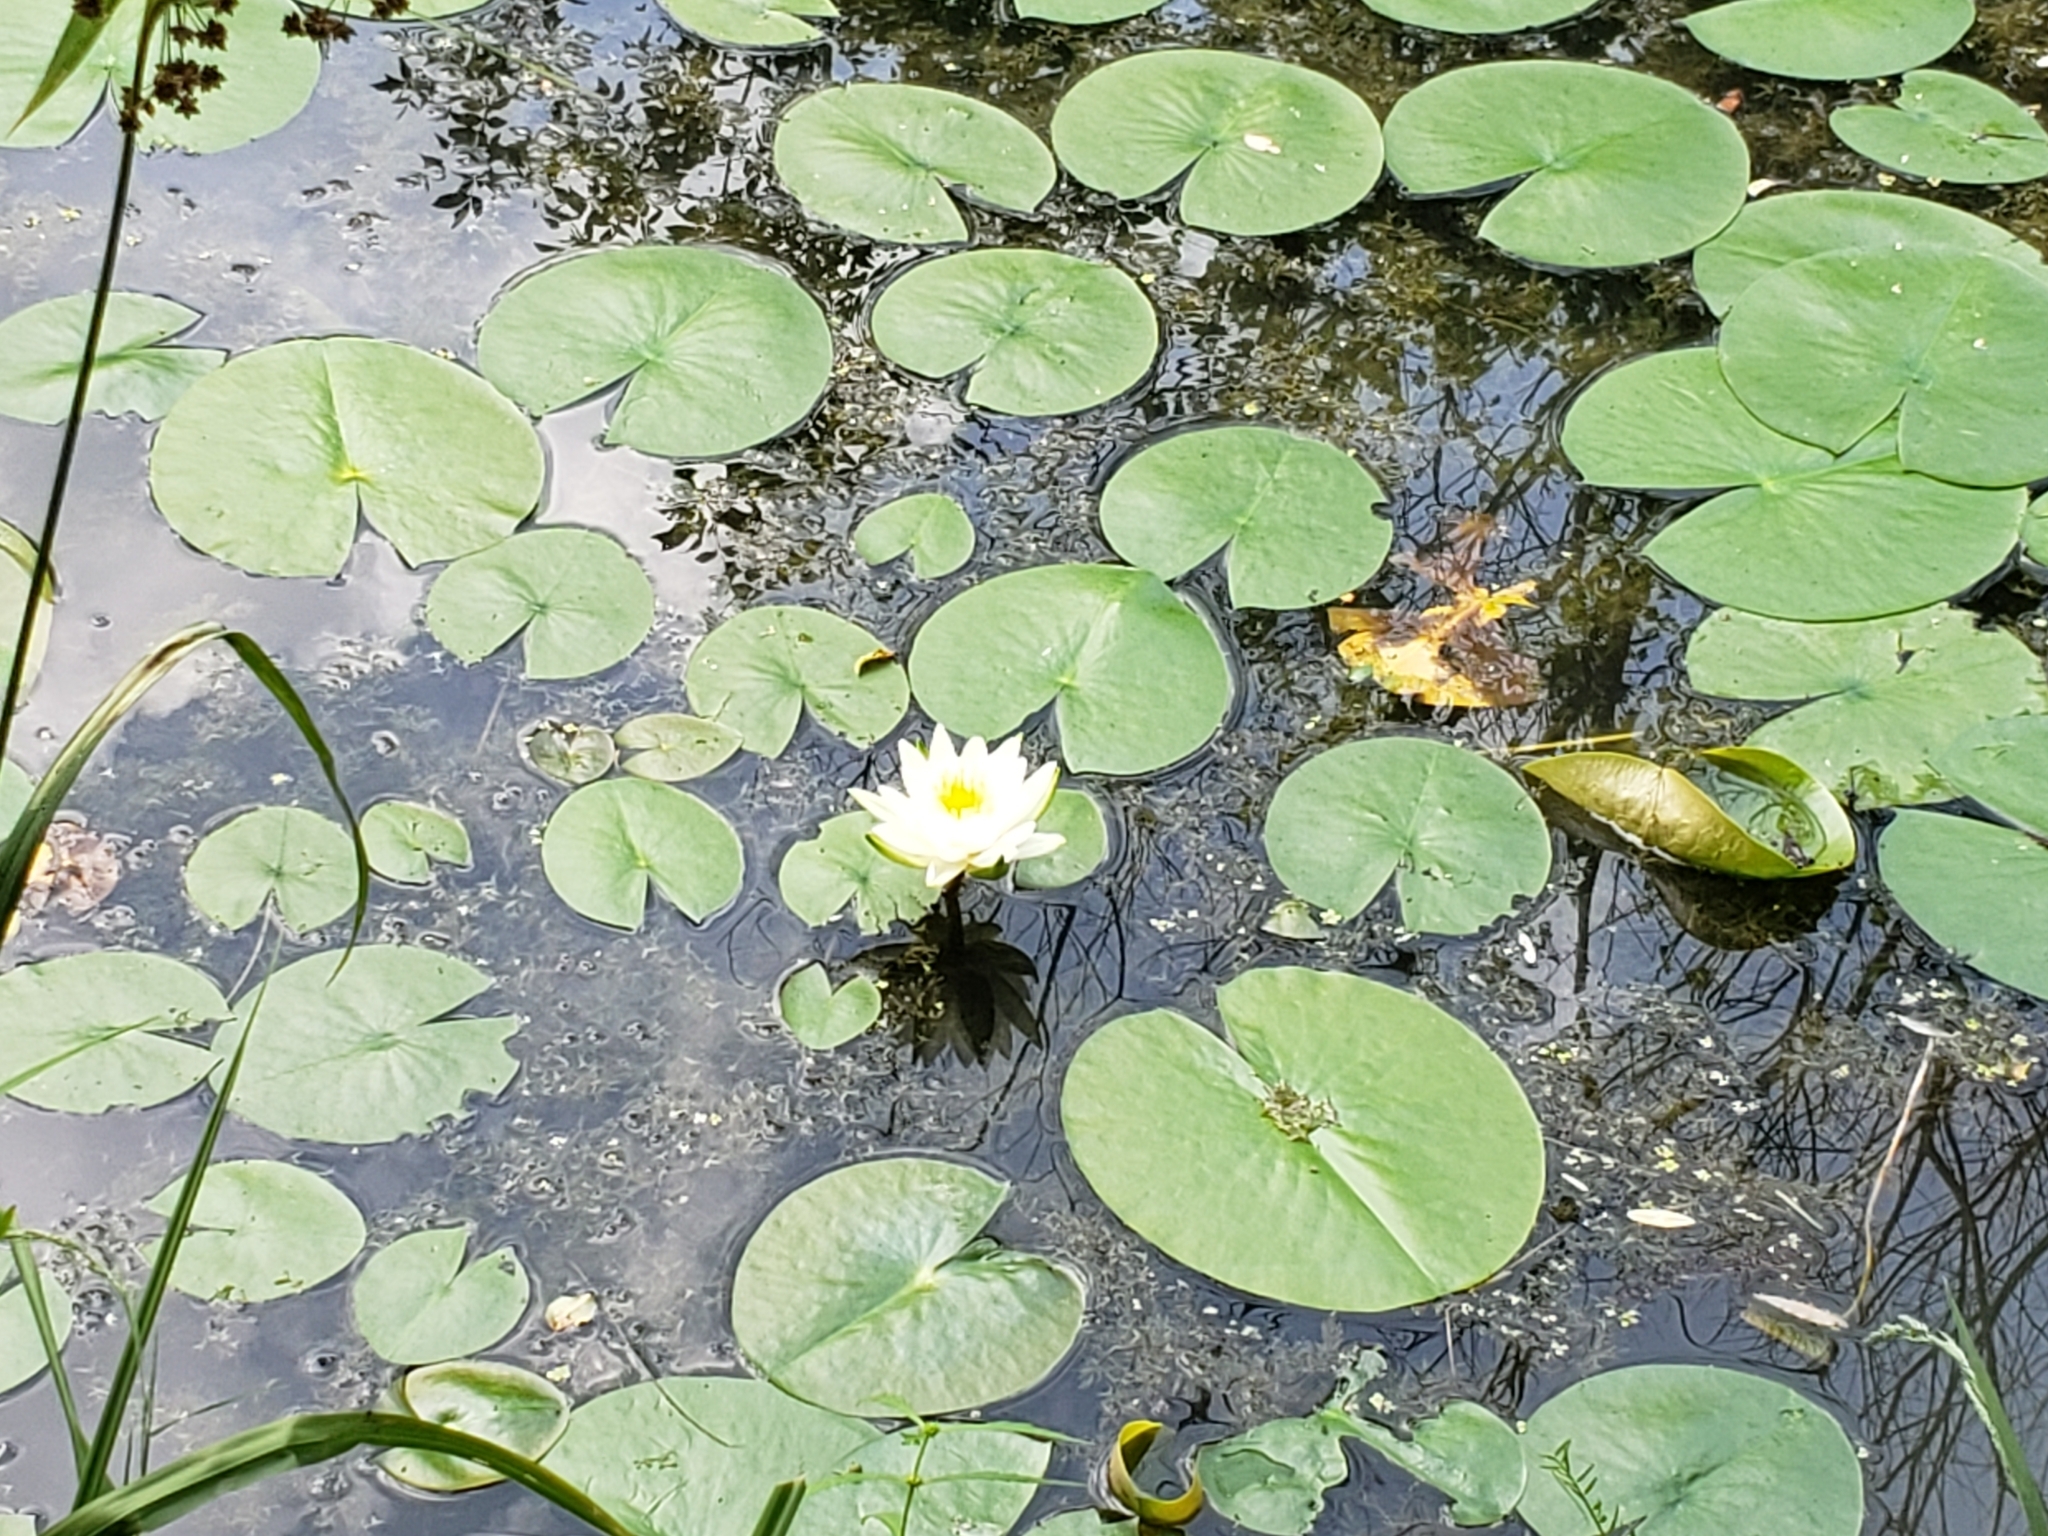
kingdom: Plantae
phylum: Tracheophyta
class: Magnoliopsida
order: Nymphaeales
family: Nymphaeaceae
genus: Nymphaea
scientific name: Nymphaea odorata
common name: Fragrant water-lily
